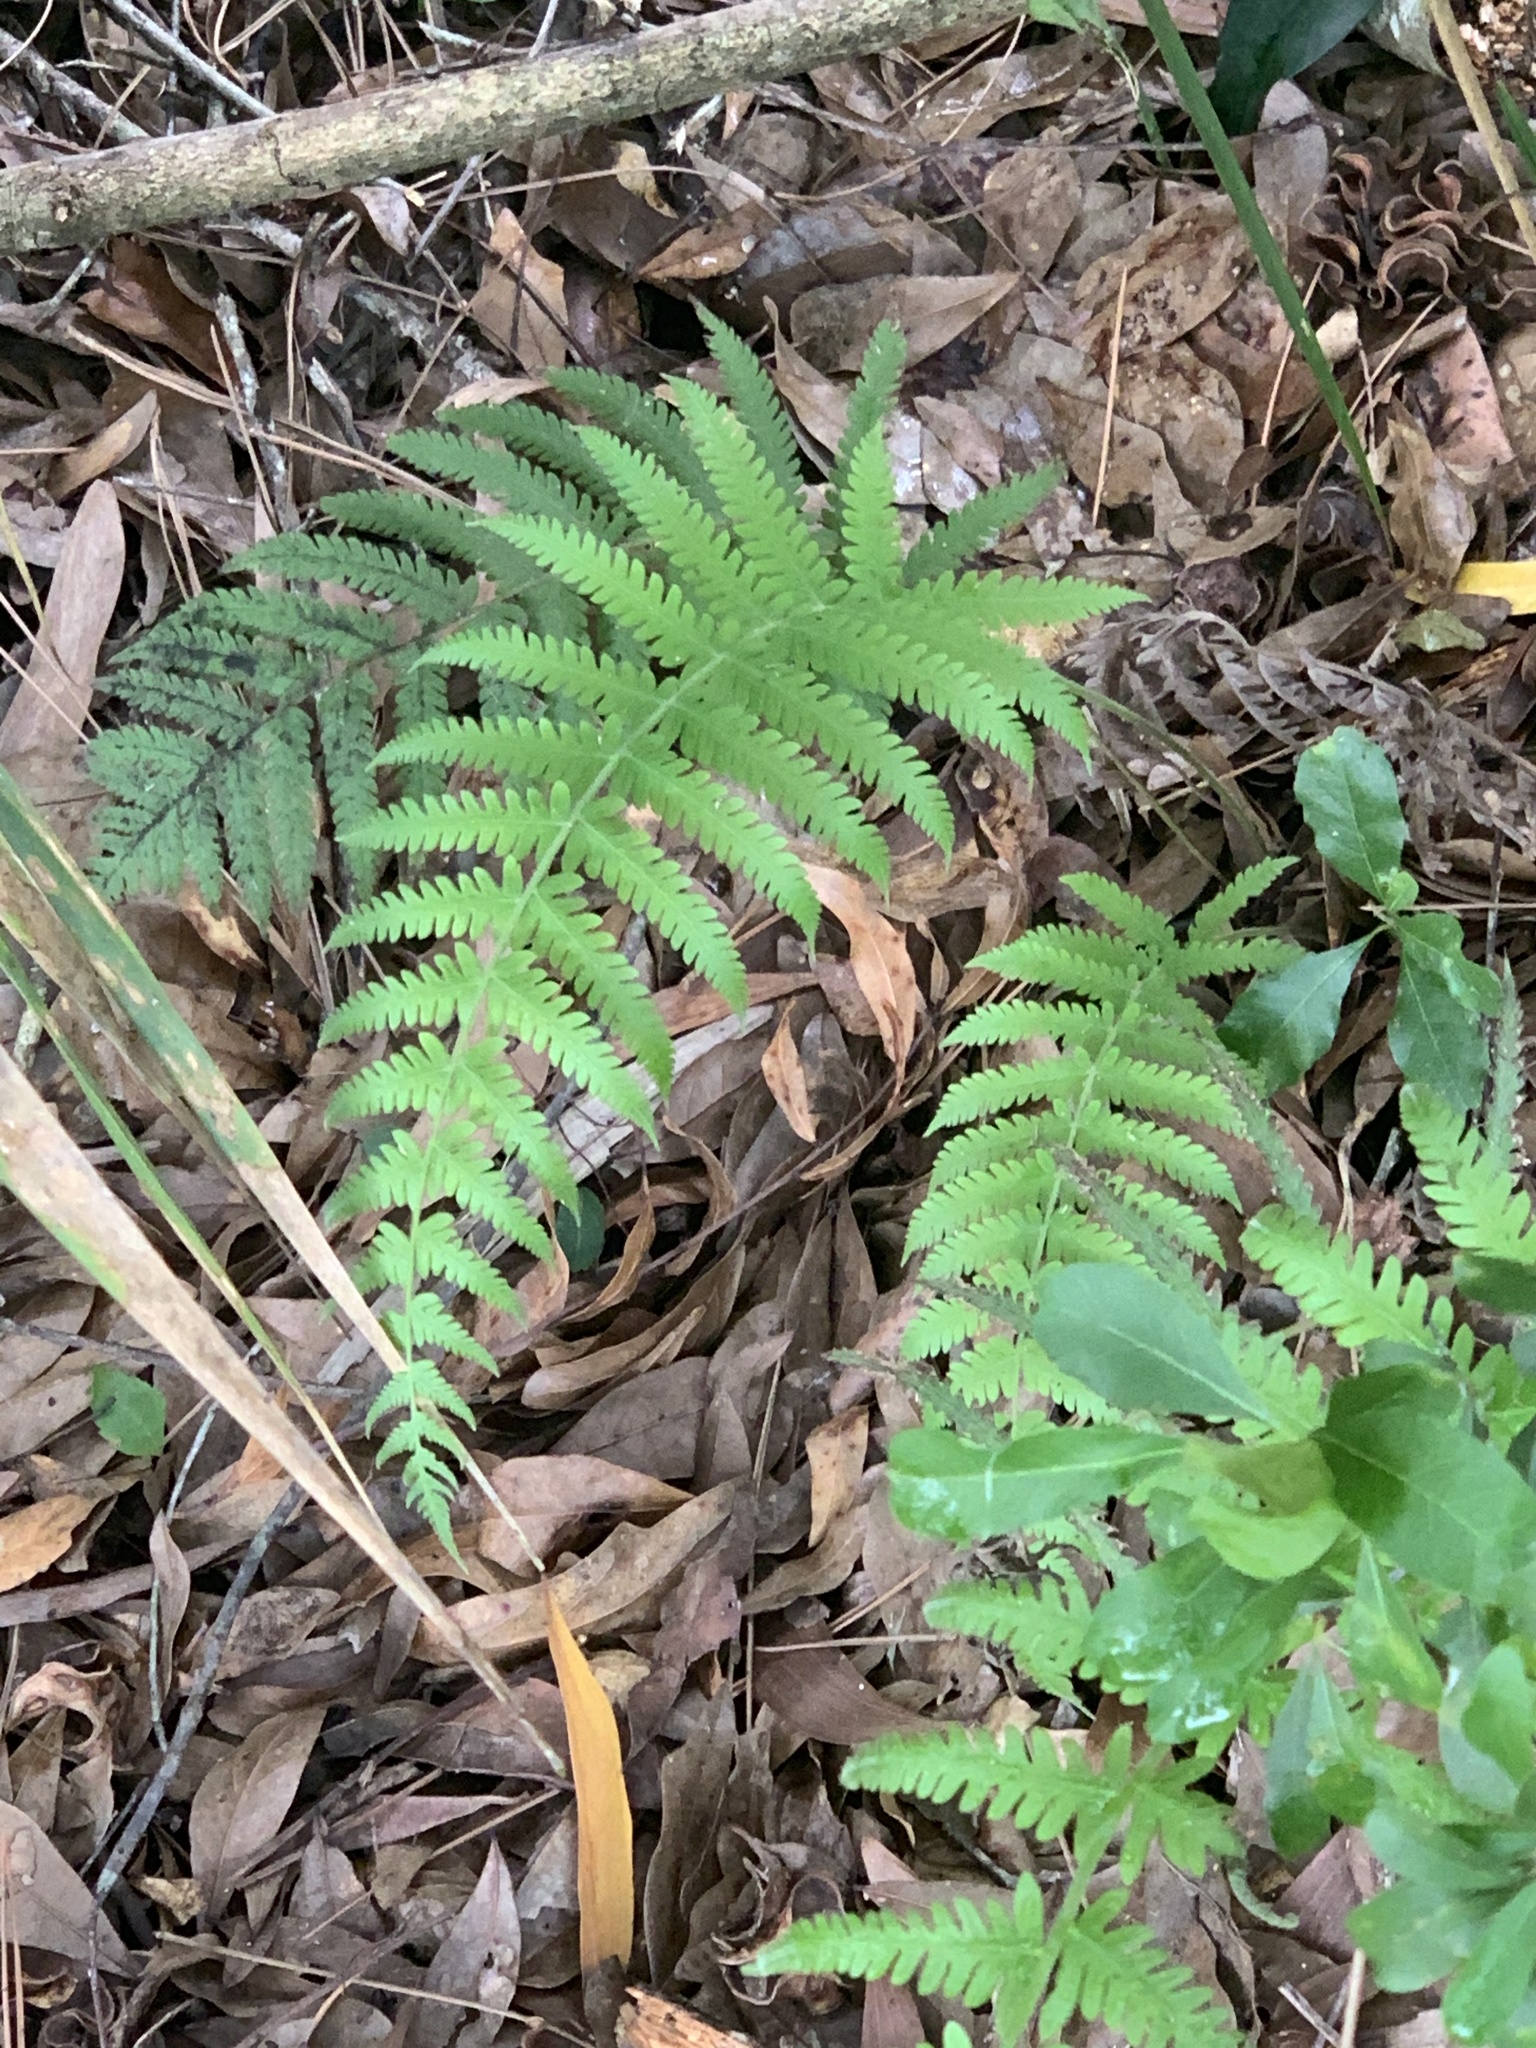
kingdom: Plantae
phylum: Tracheophyta
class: Polypodiopsida
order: Polypodiales
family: Thelypteridaceae
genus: Pelazoneuron
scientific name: Pelazoneuron kunthii
